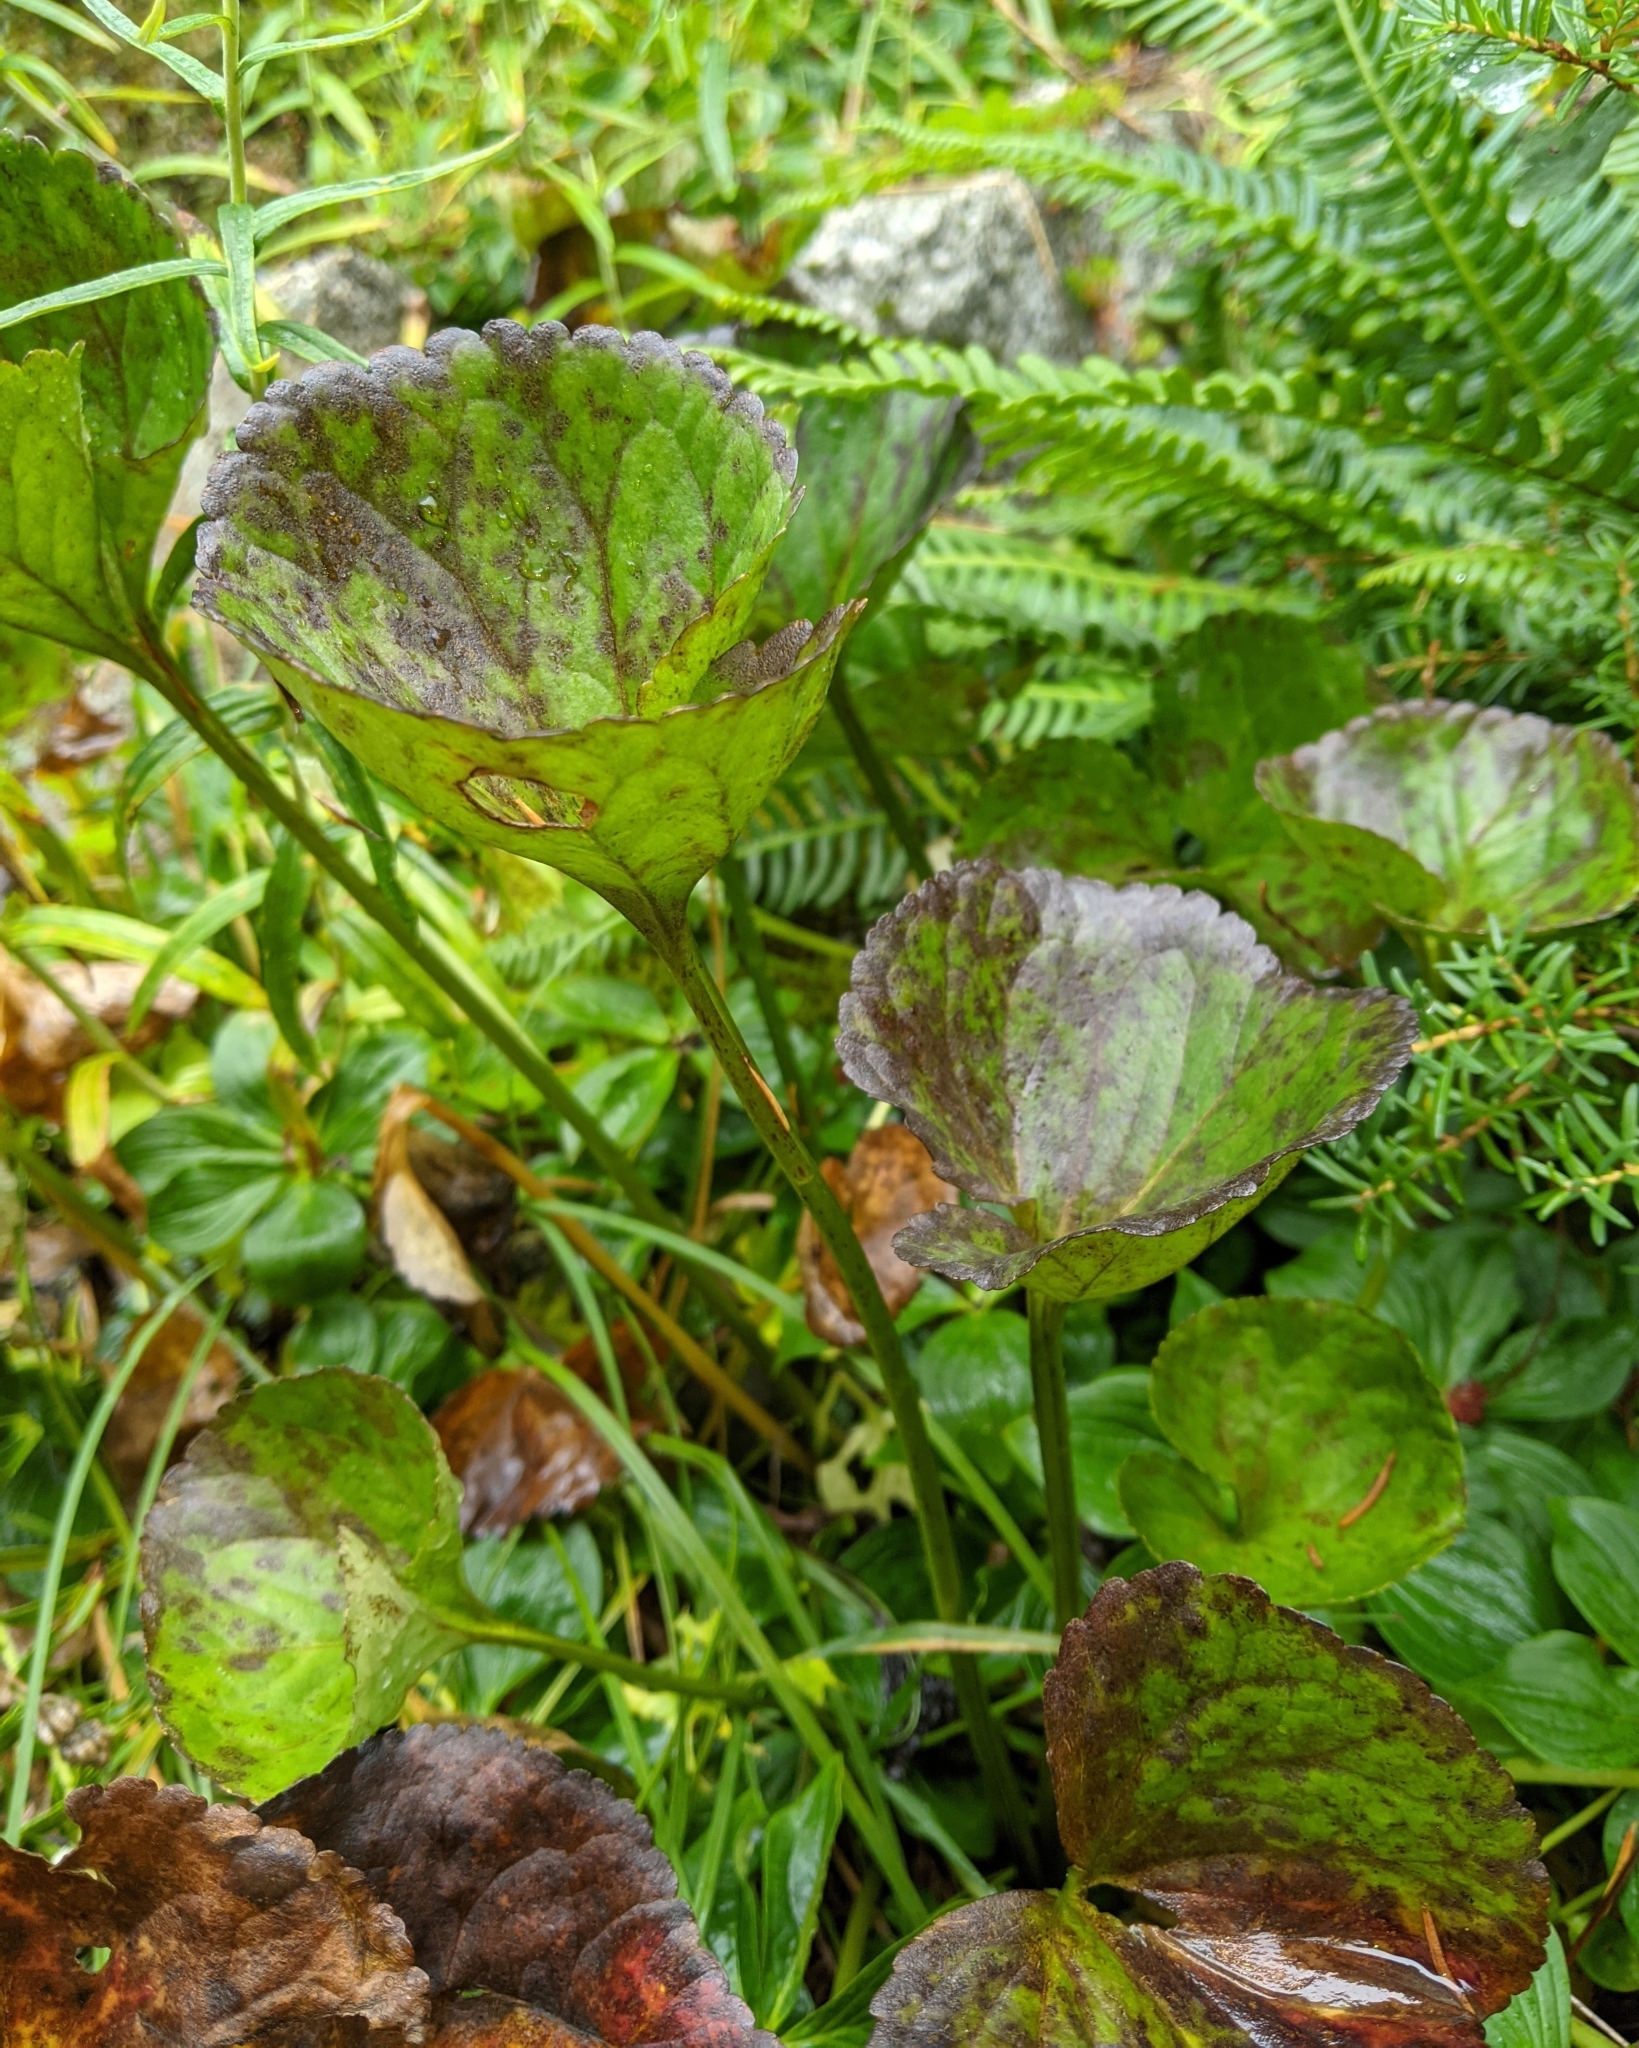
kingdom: Plantae
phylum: Tracheophyta
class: Magnoliopsida
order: Asterales
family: Menyanthaceae
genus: Nephrophyllidium
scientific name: Nephrophyllidium crista-galli
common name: Deer-cabbage
